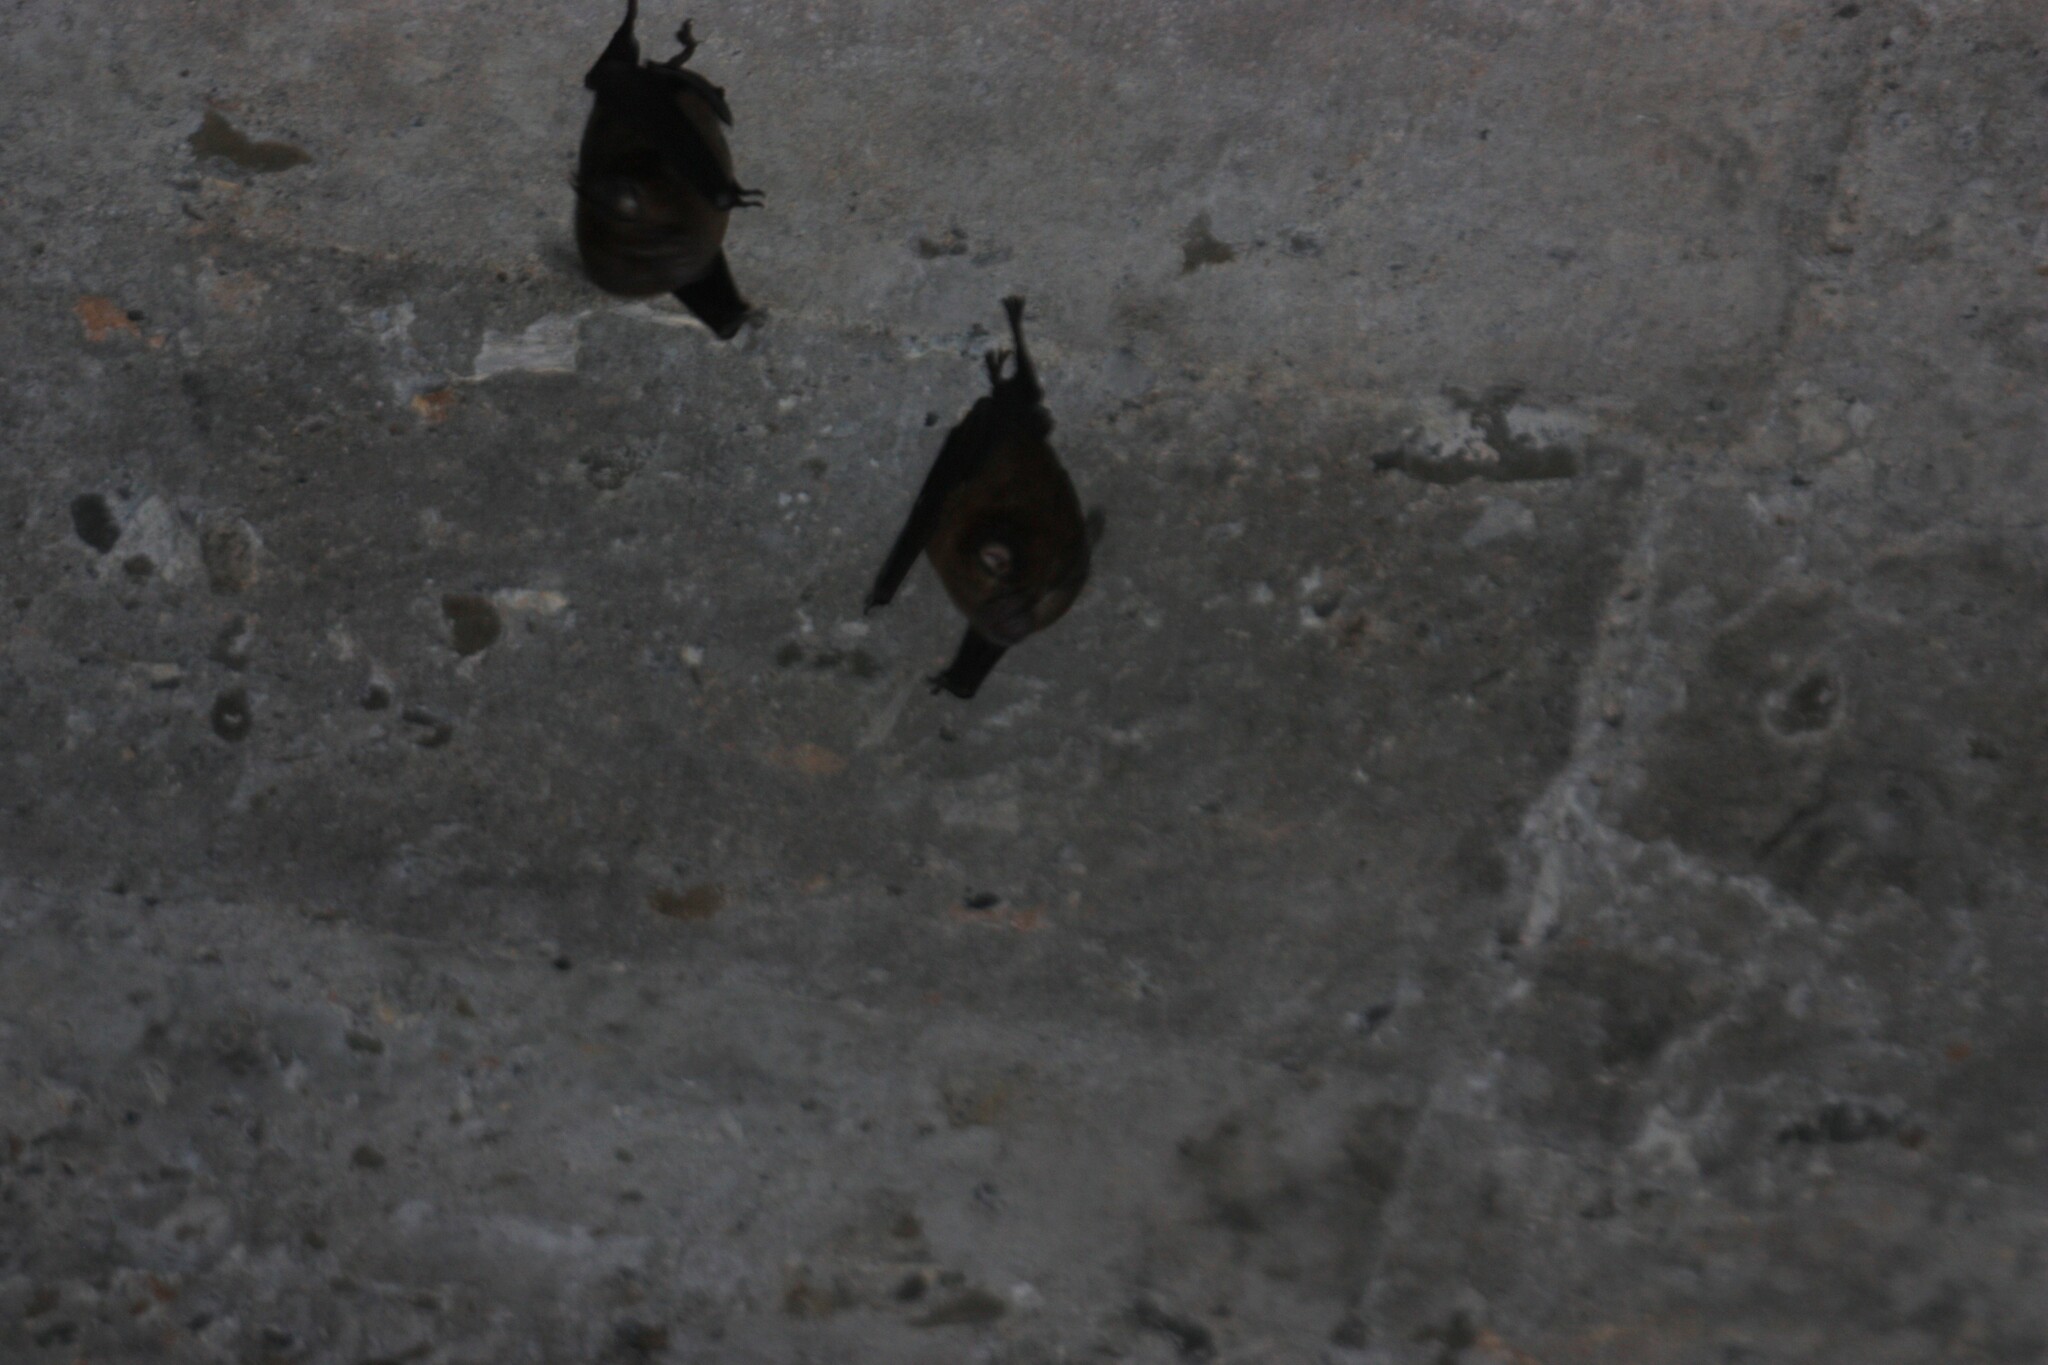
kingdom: Animalia
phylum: Chordata
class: Mammalia
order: Chiroptera
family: Rhinolophidae
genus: Rhinolophus
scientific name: Rhinolophus monoceros
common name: Formosan lesser horseshoe bat
